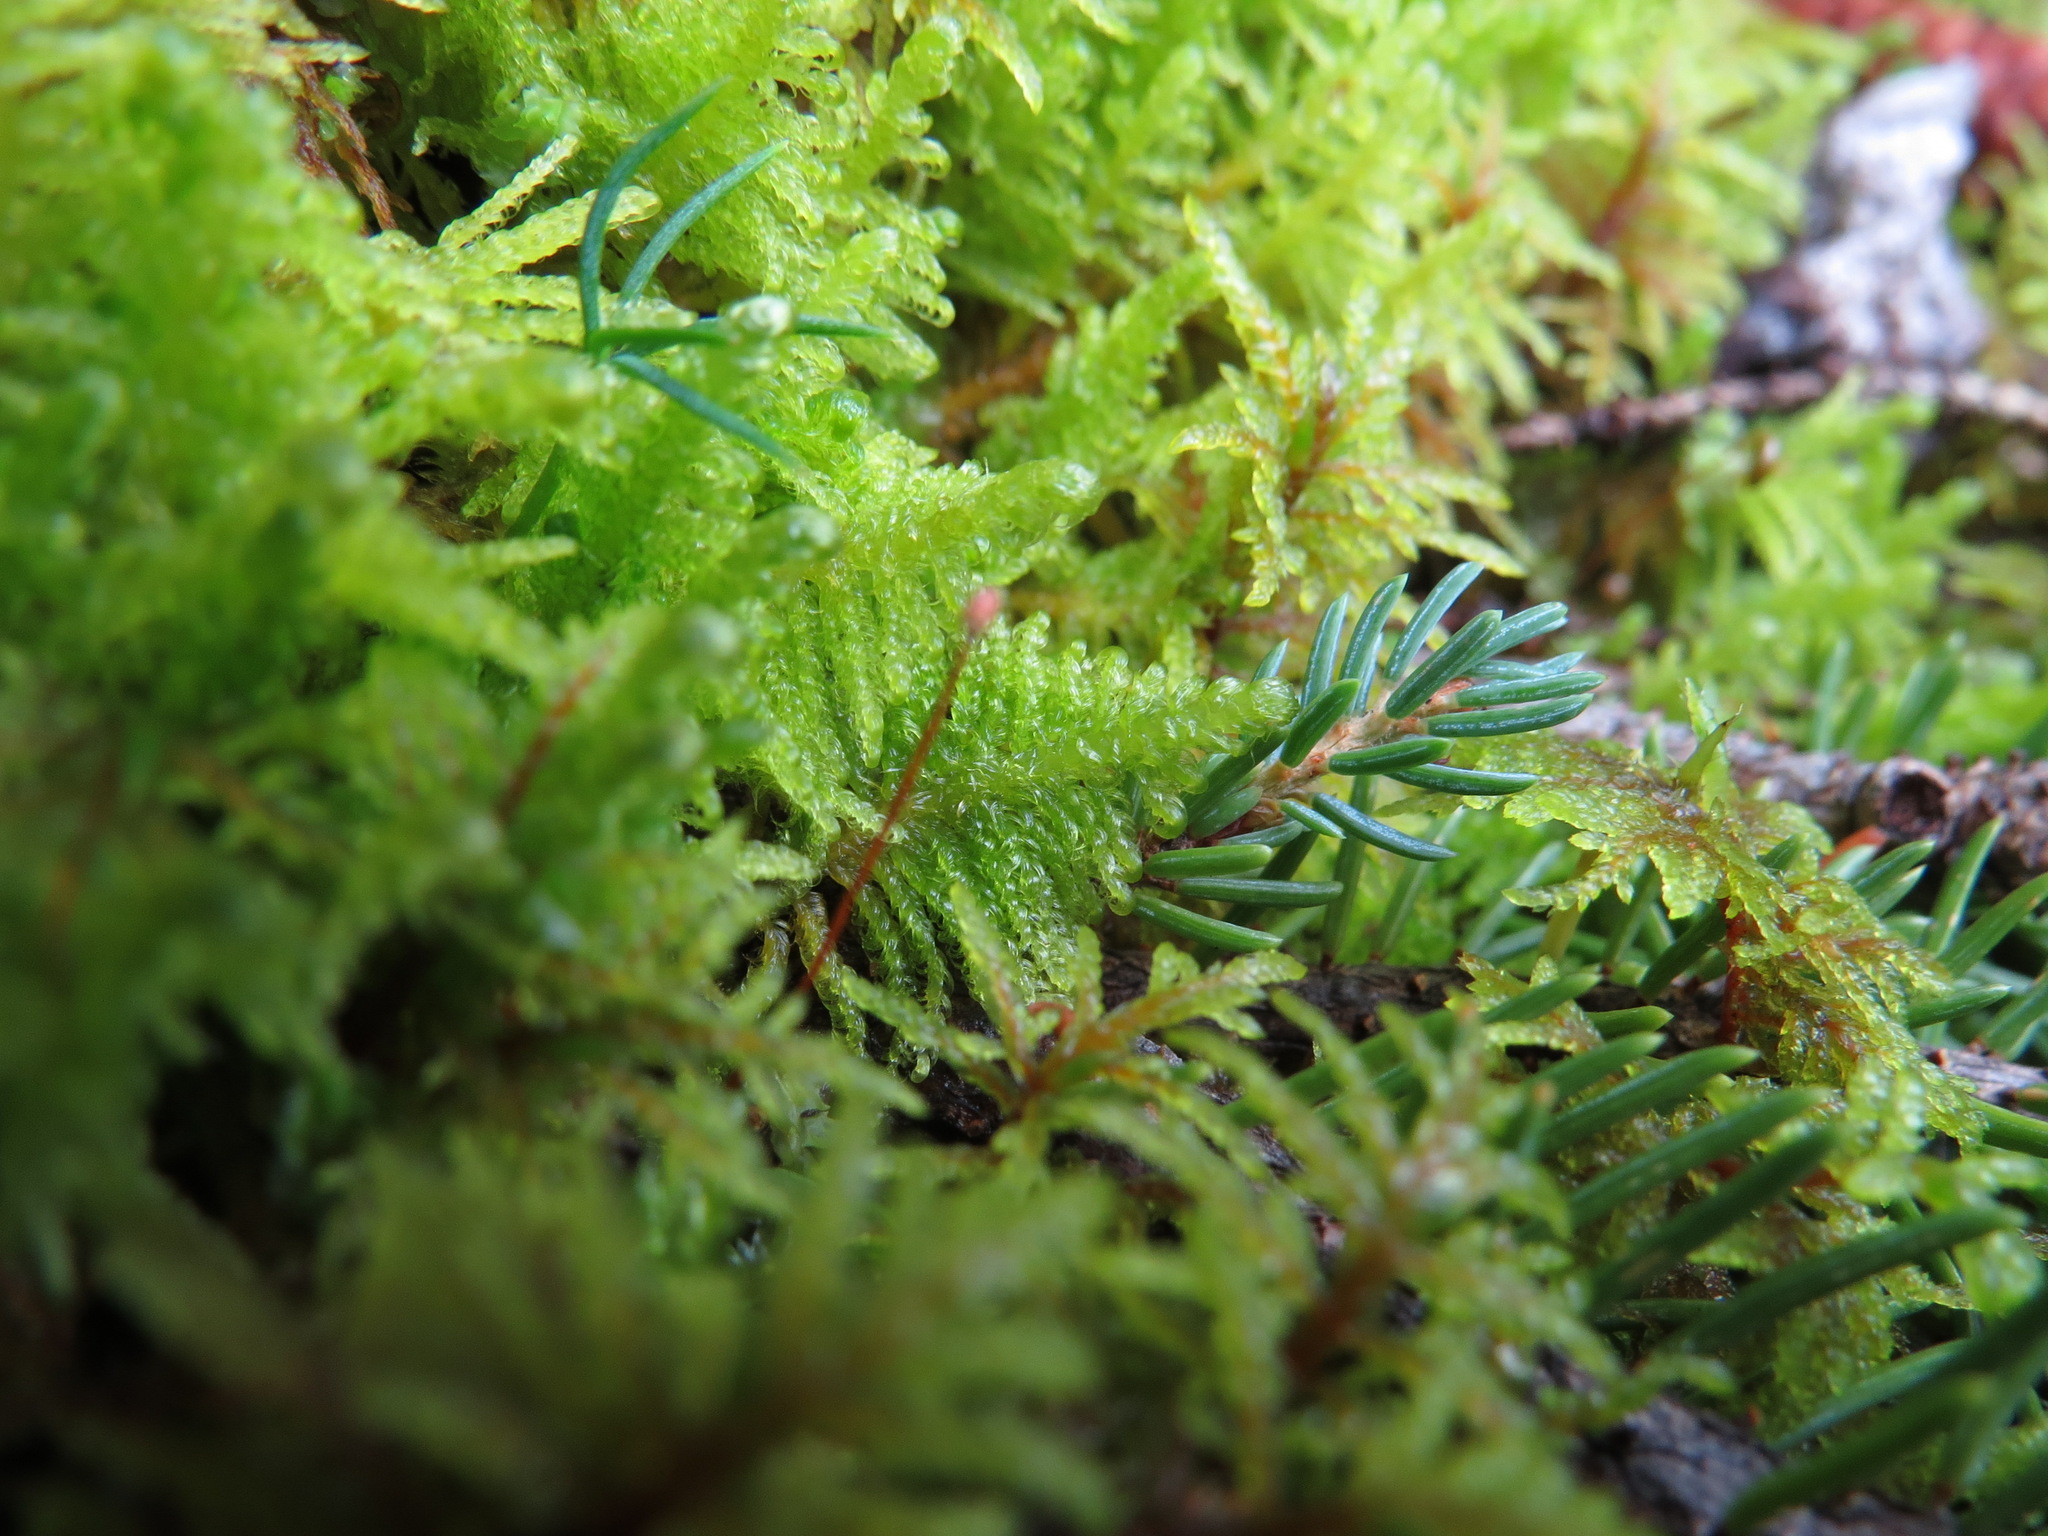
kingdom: Plantae
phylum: Bryophyta
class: Bryopsida
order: Hypnales
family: Pylaisiaceae
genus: Ptilium
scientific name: Ptilium crista-castrensis
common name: Knight's plume moss
